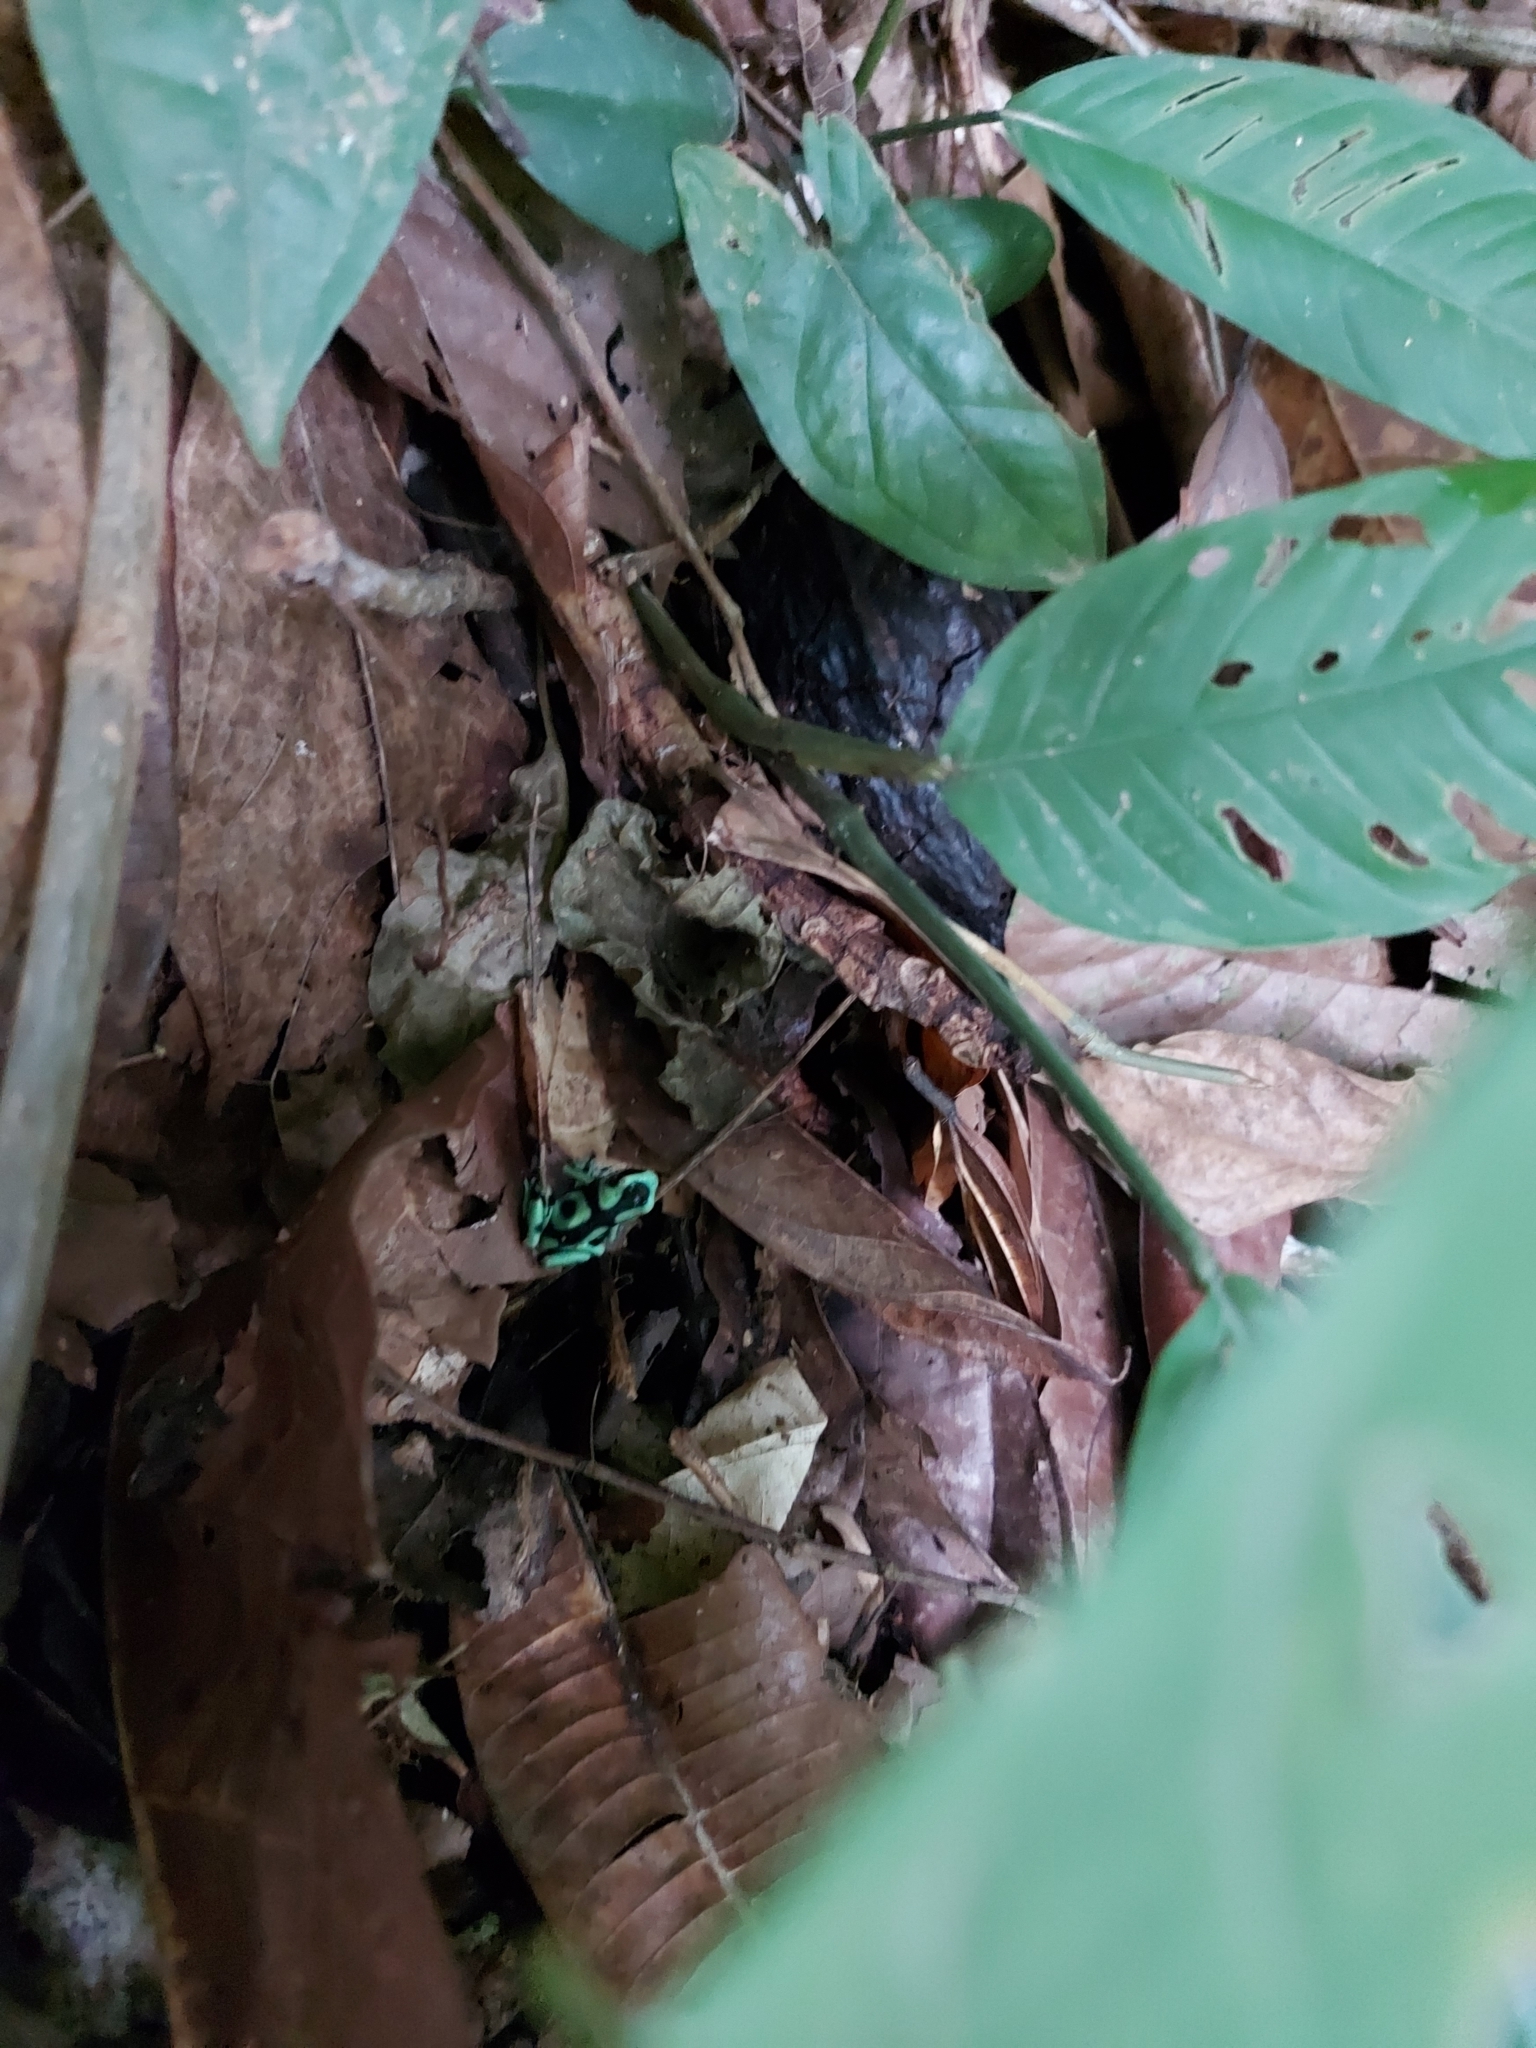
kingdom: Animalia
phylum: Chordata
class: Amphibia
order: Anura
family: Dendrobatidae
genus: Dendrobates
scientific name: Dendrobates auratus
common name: Green and black poison dart frog
